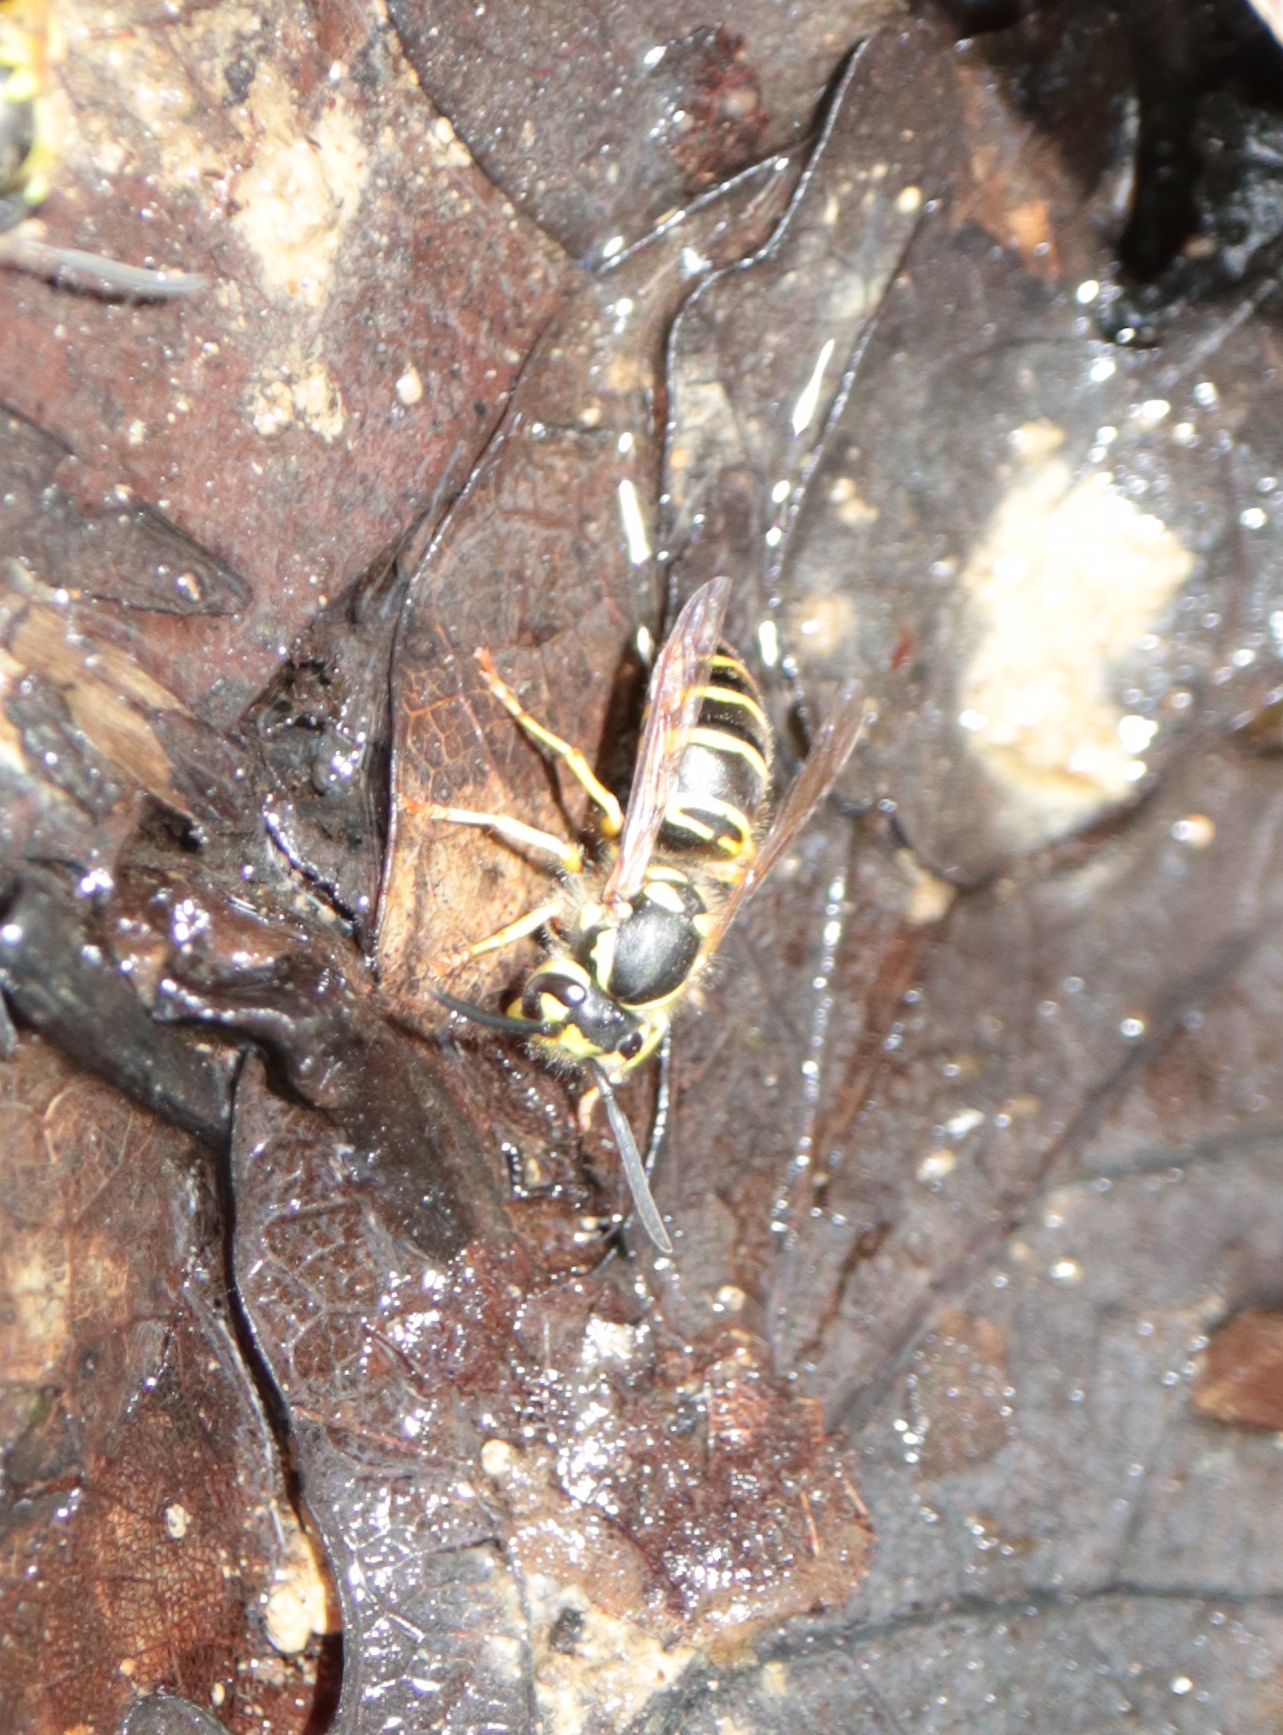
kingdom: Animalia
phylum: Arthropoda
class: Insecta
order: Hymenoptera
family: Vespidae
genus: Vespula
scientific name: Vespula maculifrons
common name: Eastern yellowjacket
